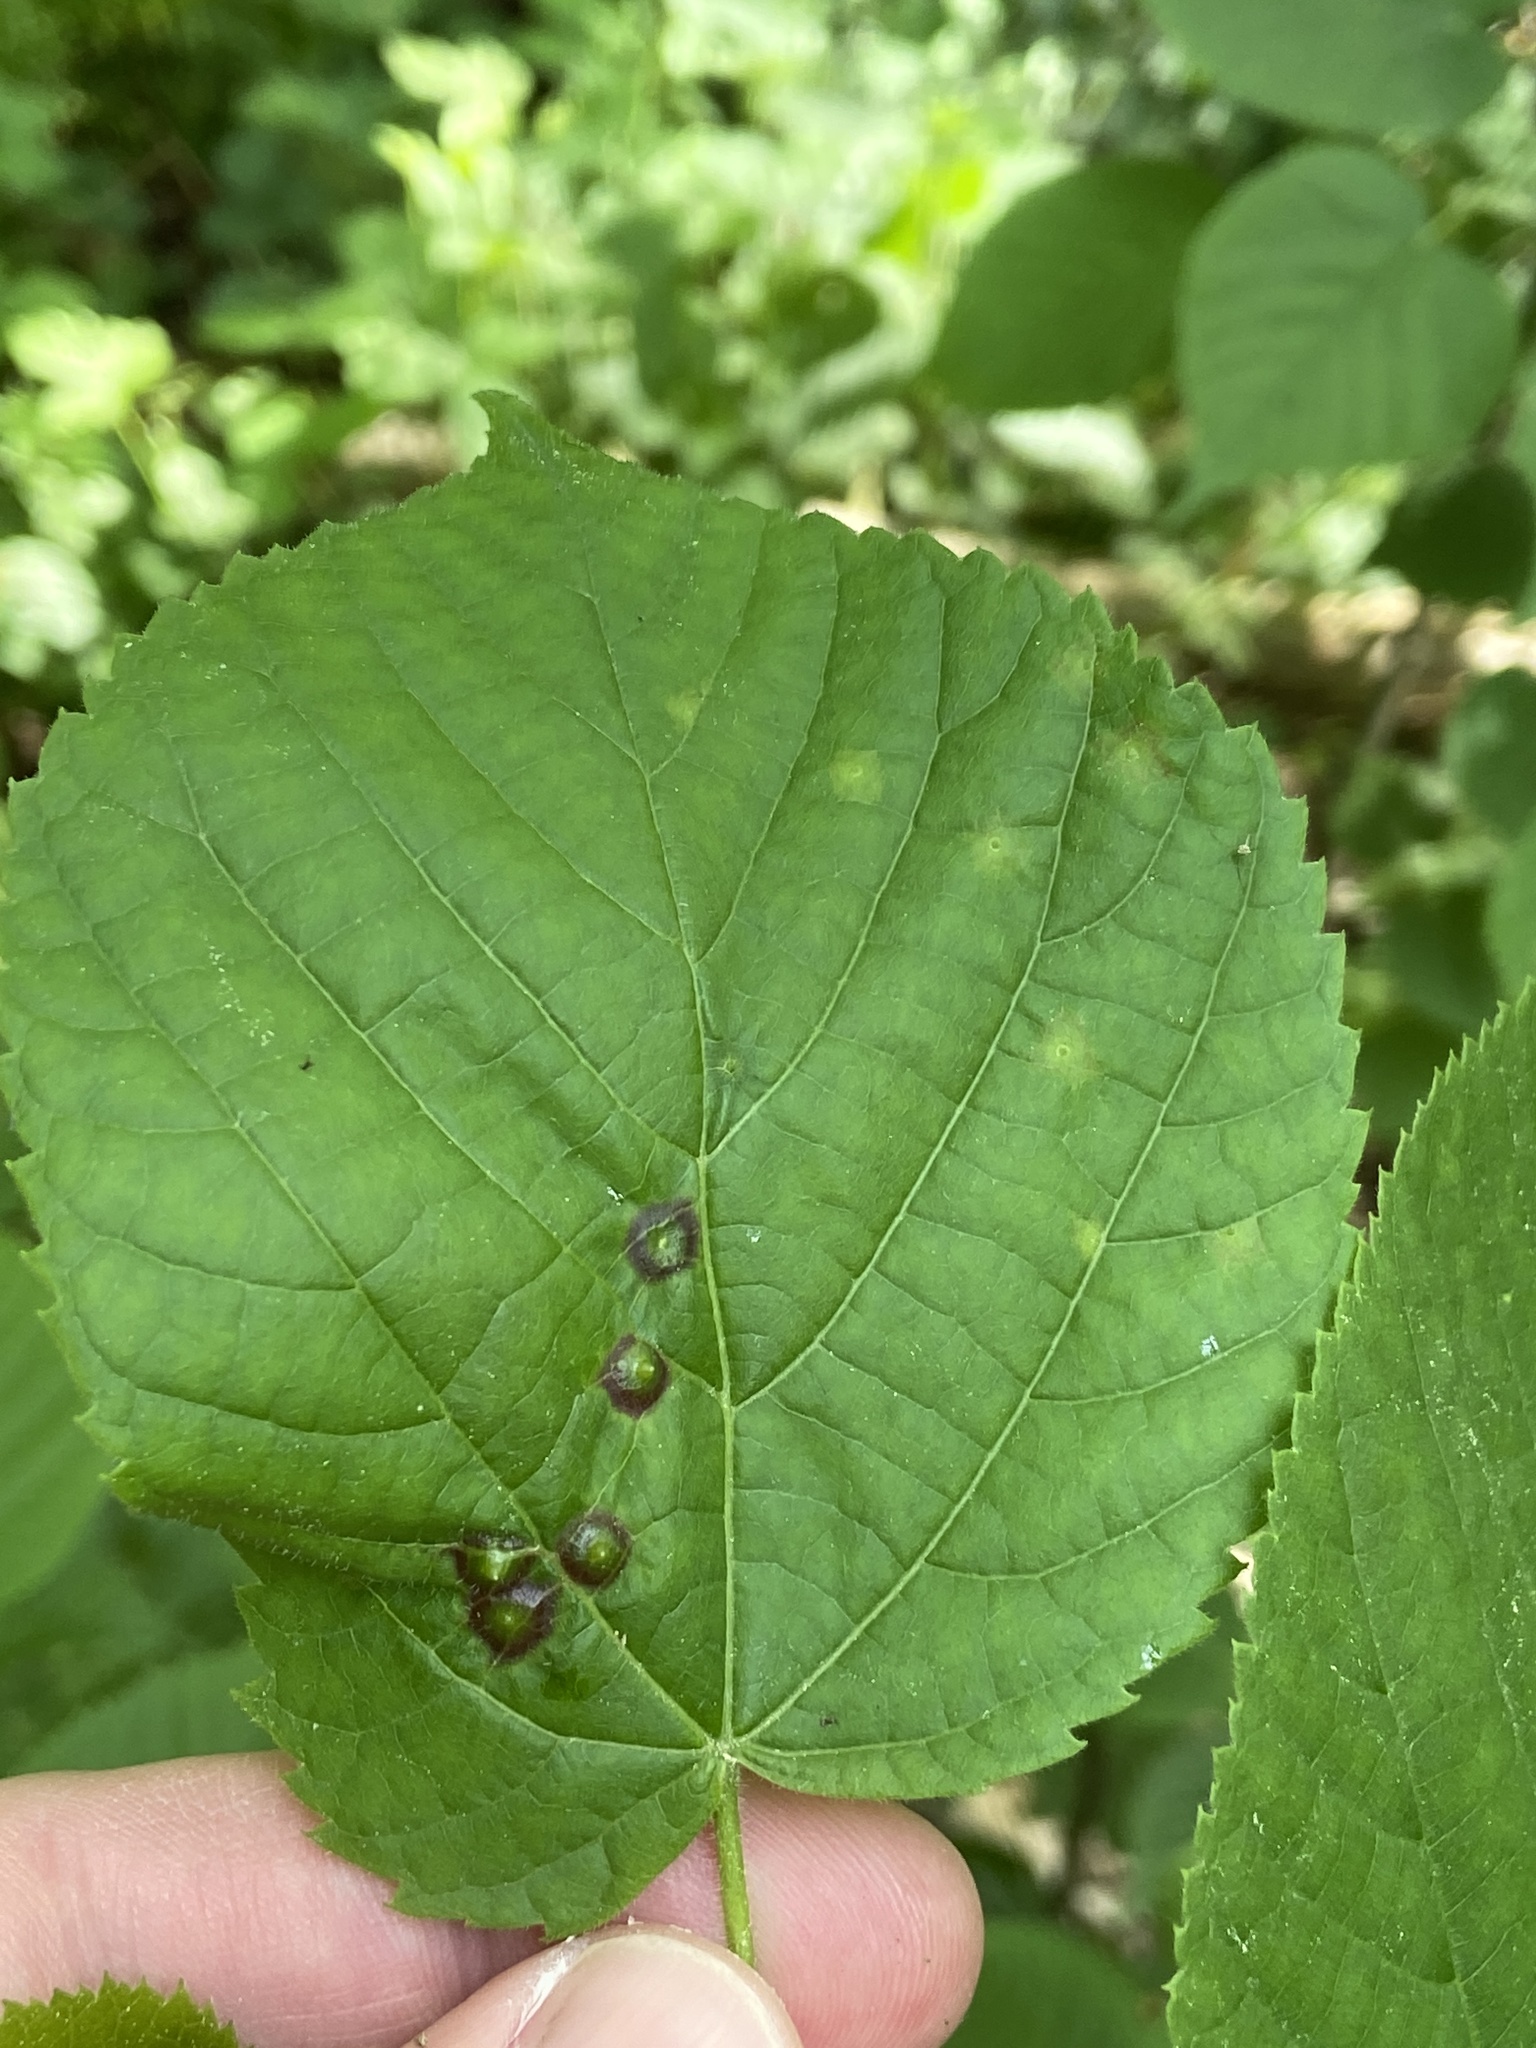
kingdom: Animalia
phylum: Arthropoda
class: Insecta
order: Diptera
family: Cecidomyiidae
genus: Didymomyia
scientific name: Didymomyia tiliacea
